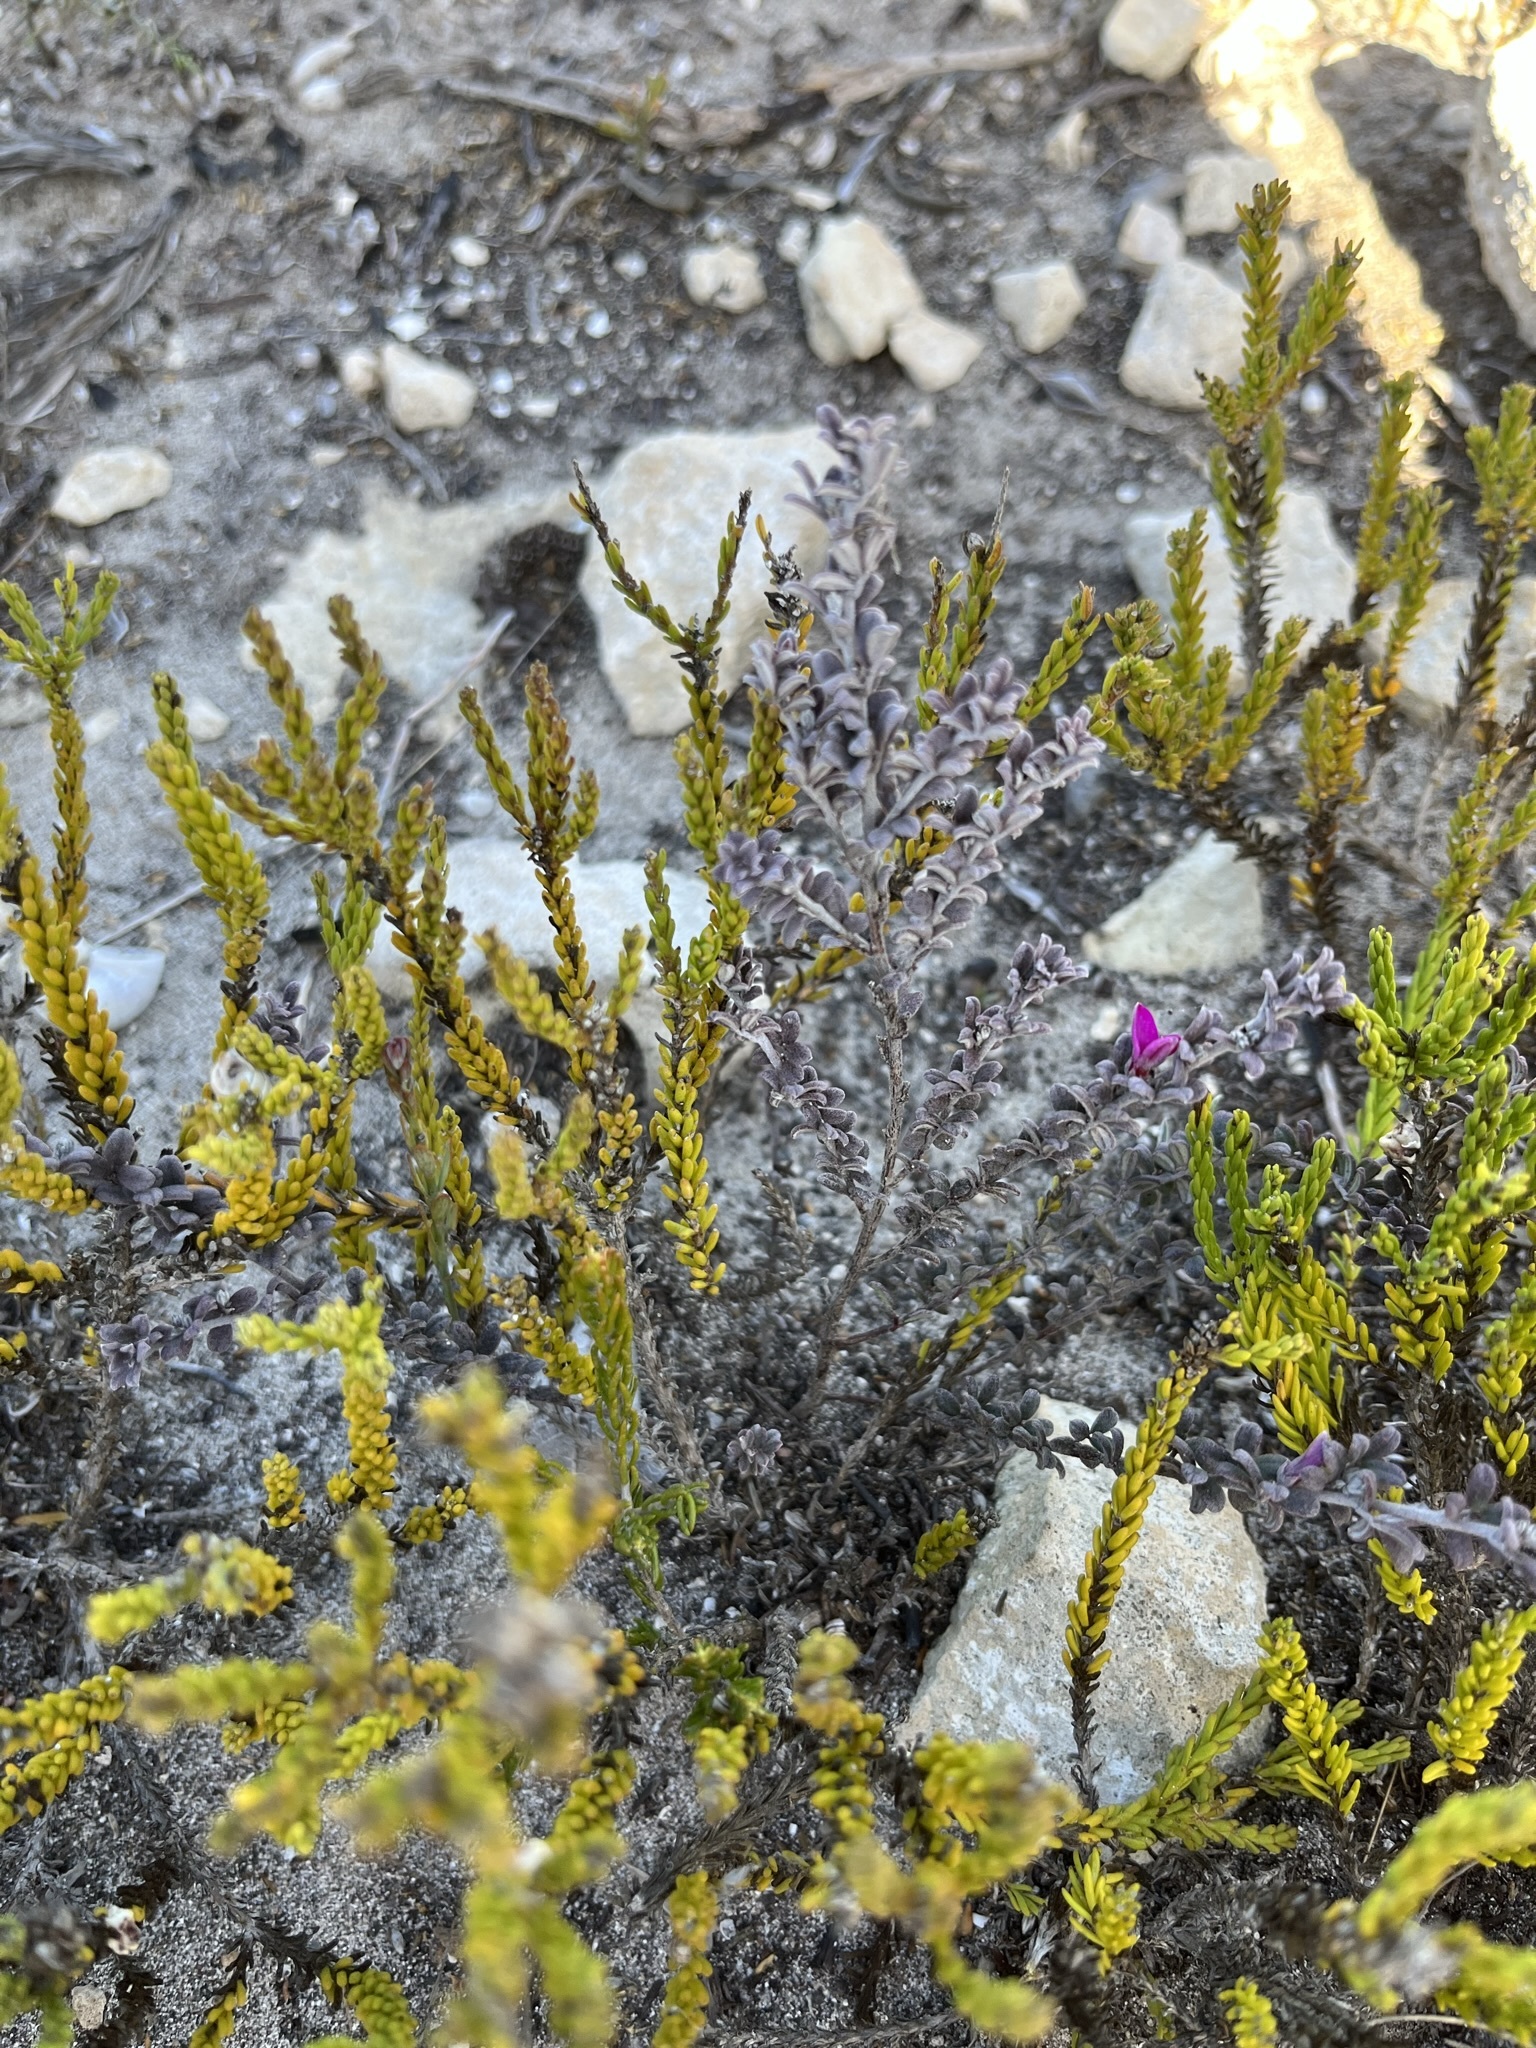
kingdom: Plantae
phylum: Tracheophyta
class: Magnoliopsida
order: Fabales
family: Fabaceae
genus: Indigofera
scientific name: Indigofera
